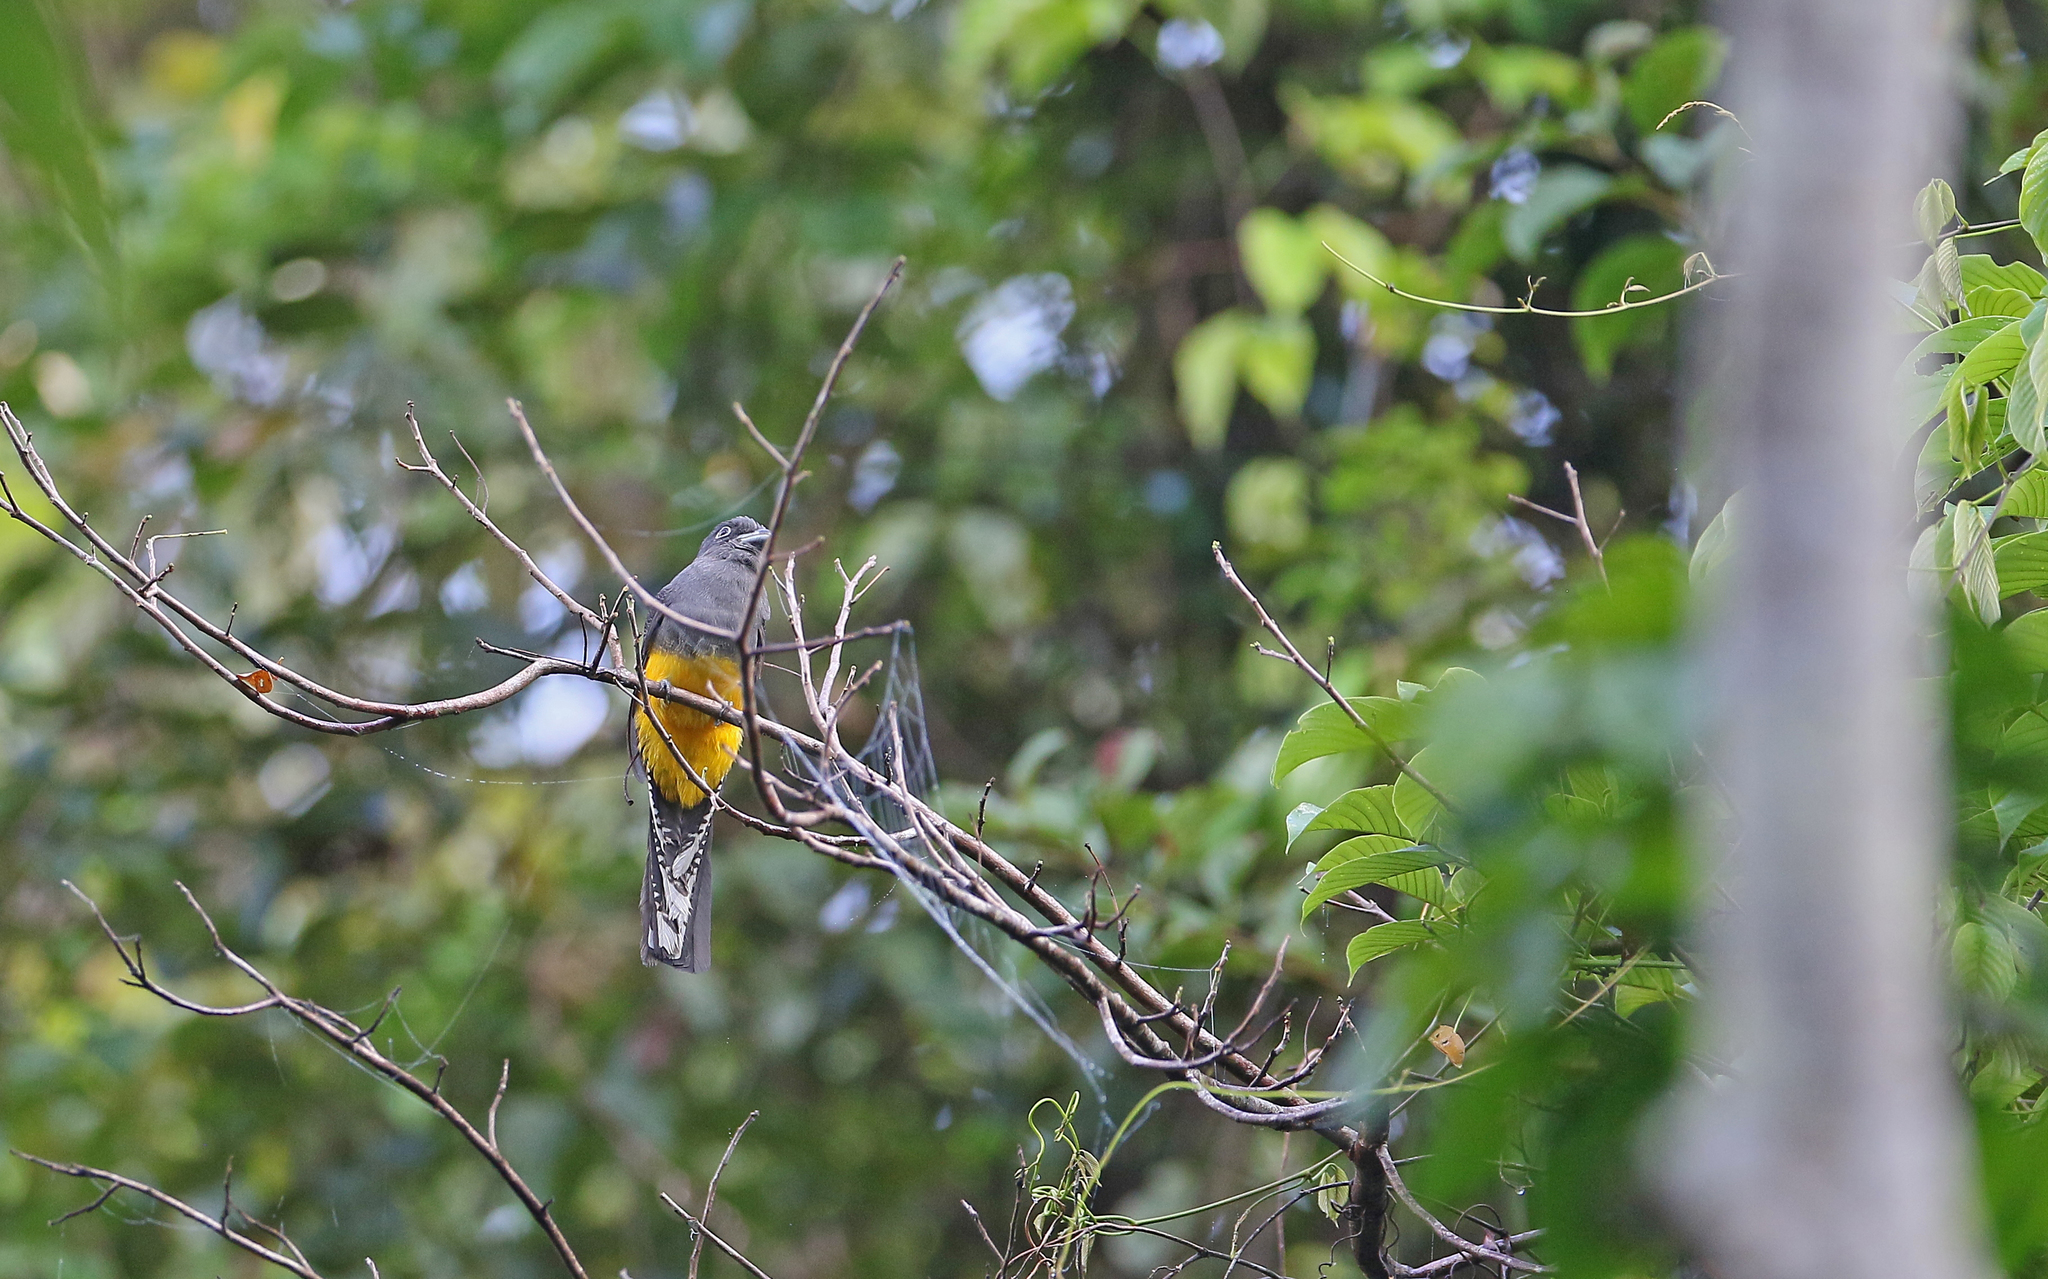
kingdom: Animalia
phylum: Chordata
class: Aves
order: Trogoniformes
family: Trogonidae
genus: Trogon
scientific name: Trogon viridis
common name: Green-backed trogon
